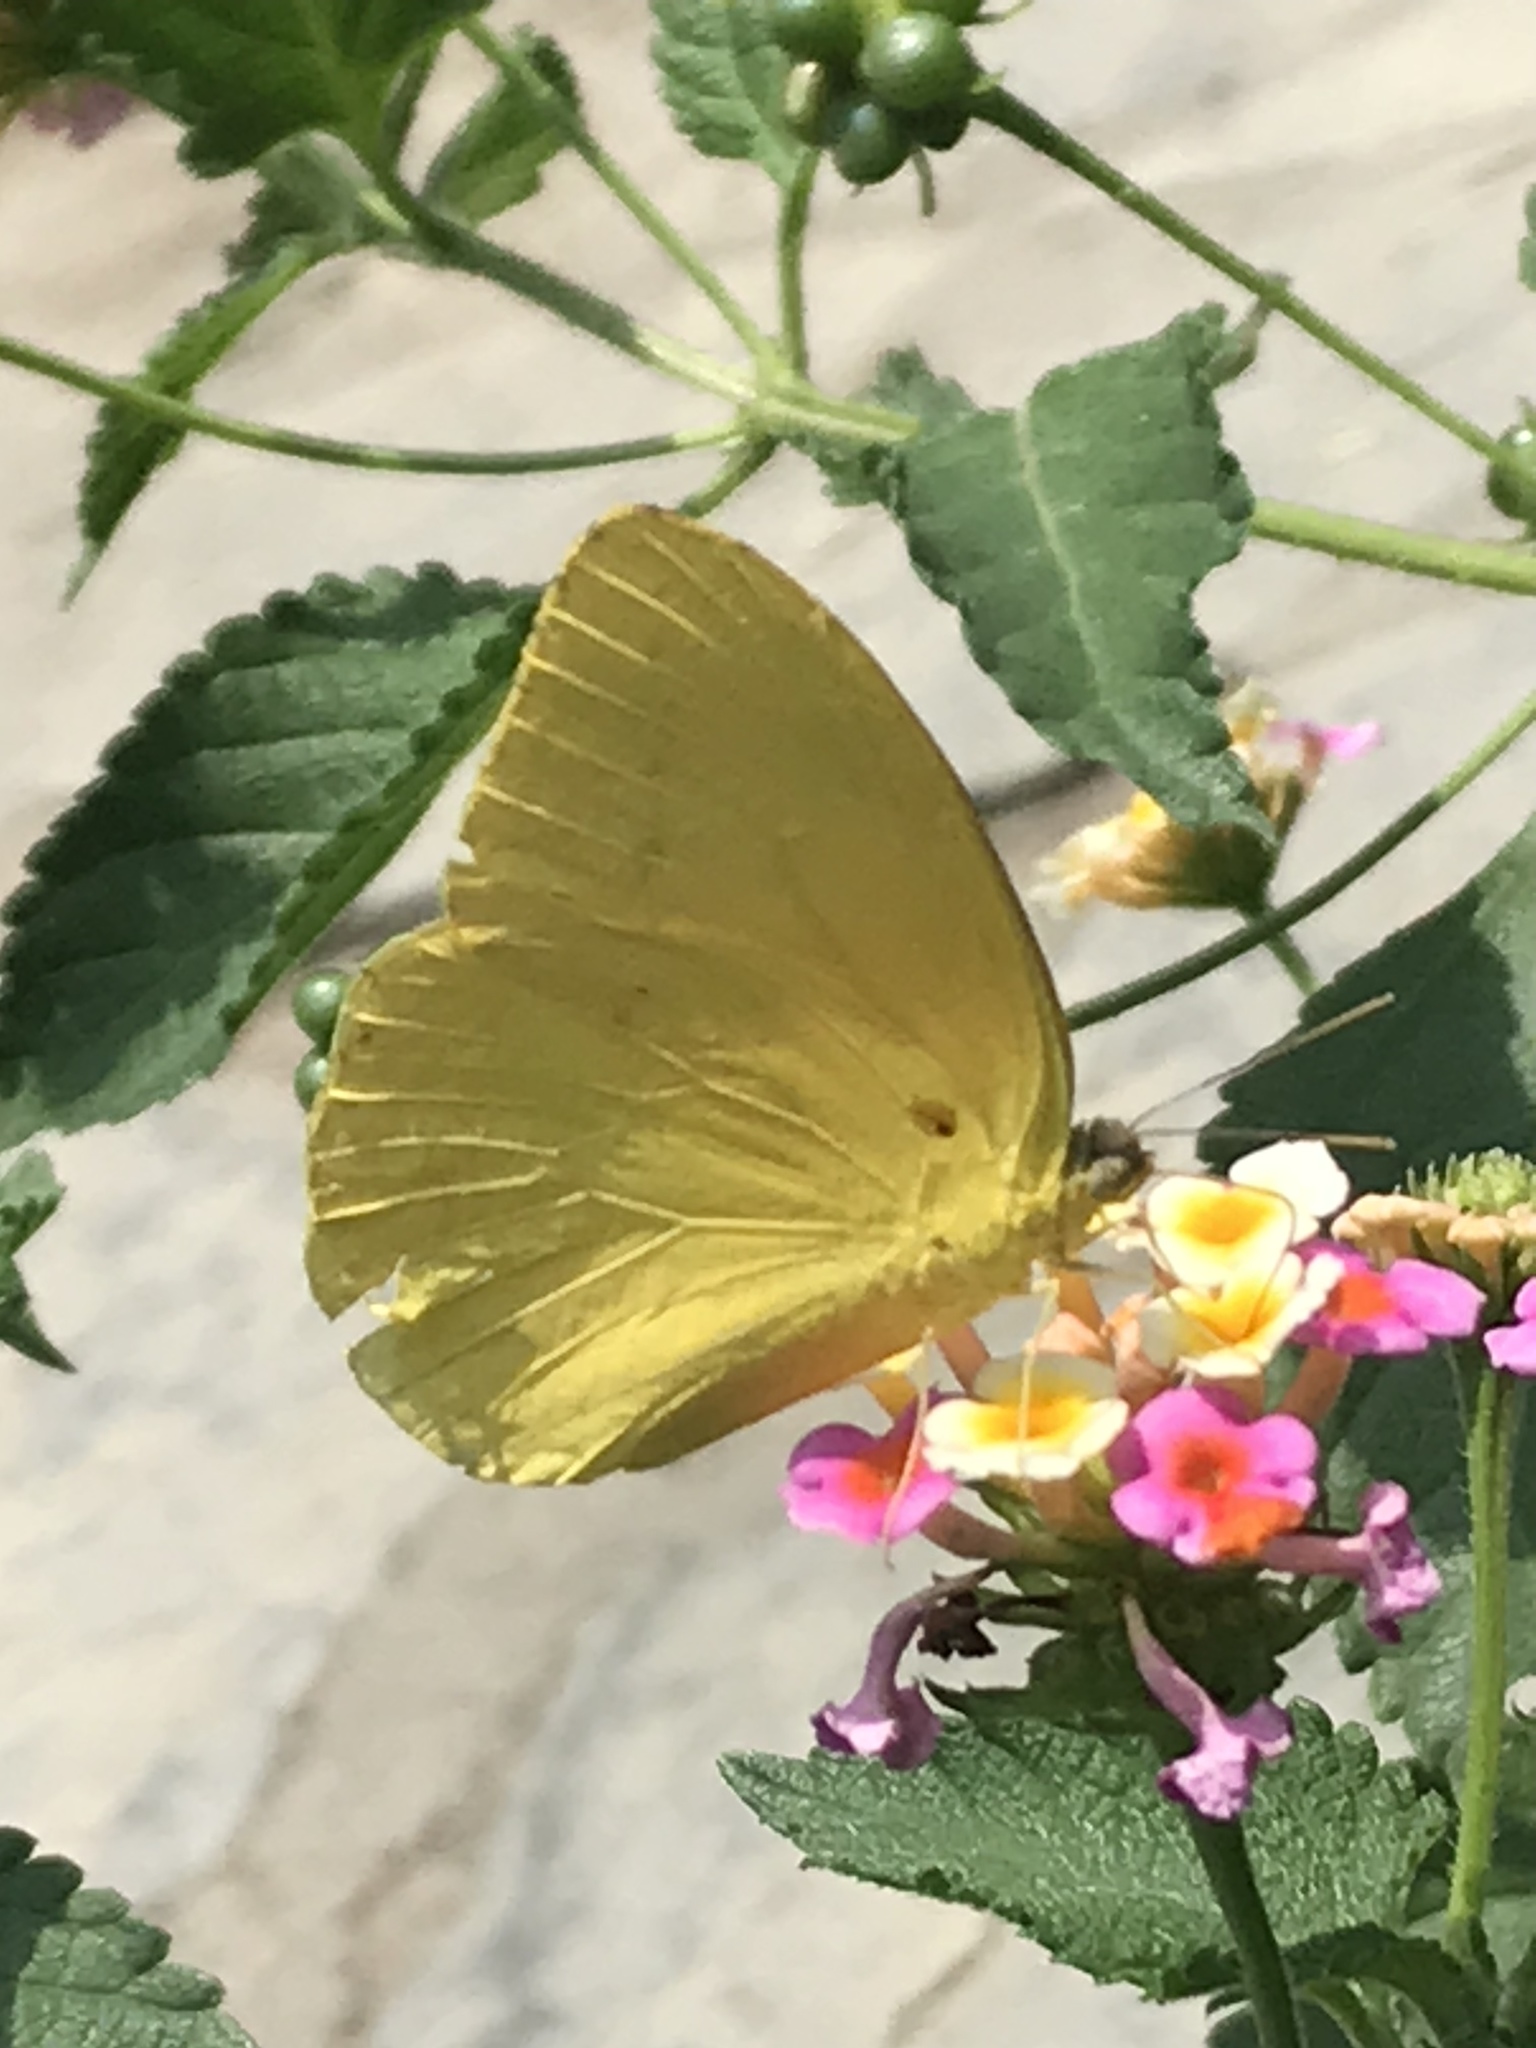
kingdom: Animalia
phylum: Arthropoda
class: Insecta
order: Lepidoptera
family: Pieridae
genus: Phoebis
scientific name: Phoebis agarithe
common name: Large orange sulphur
